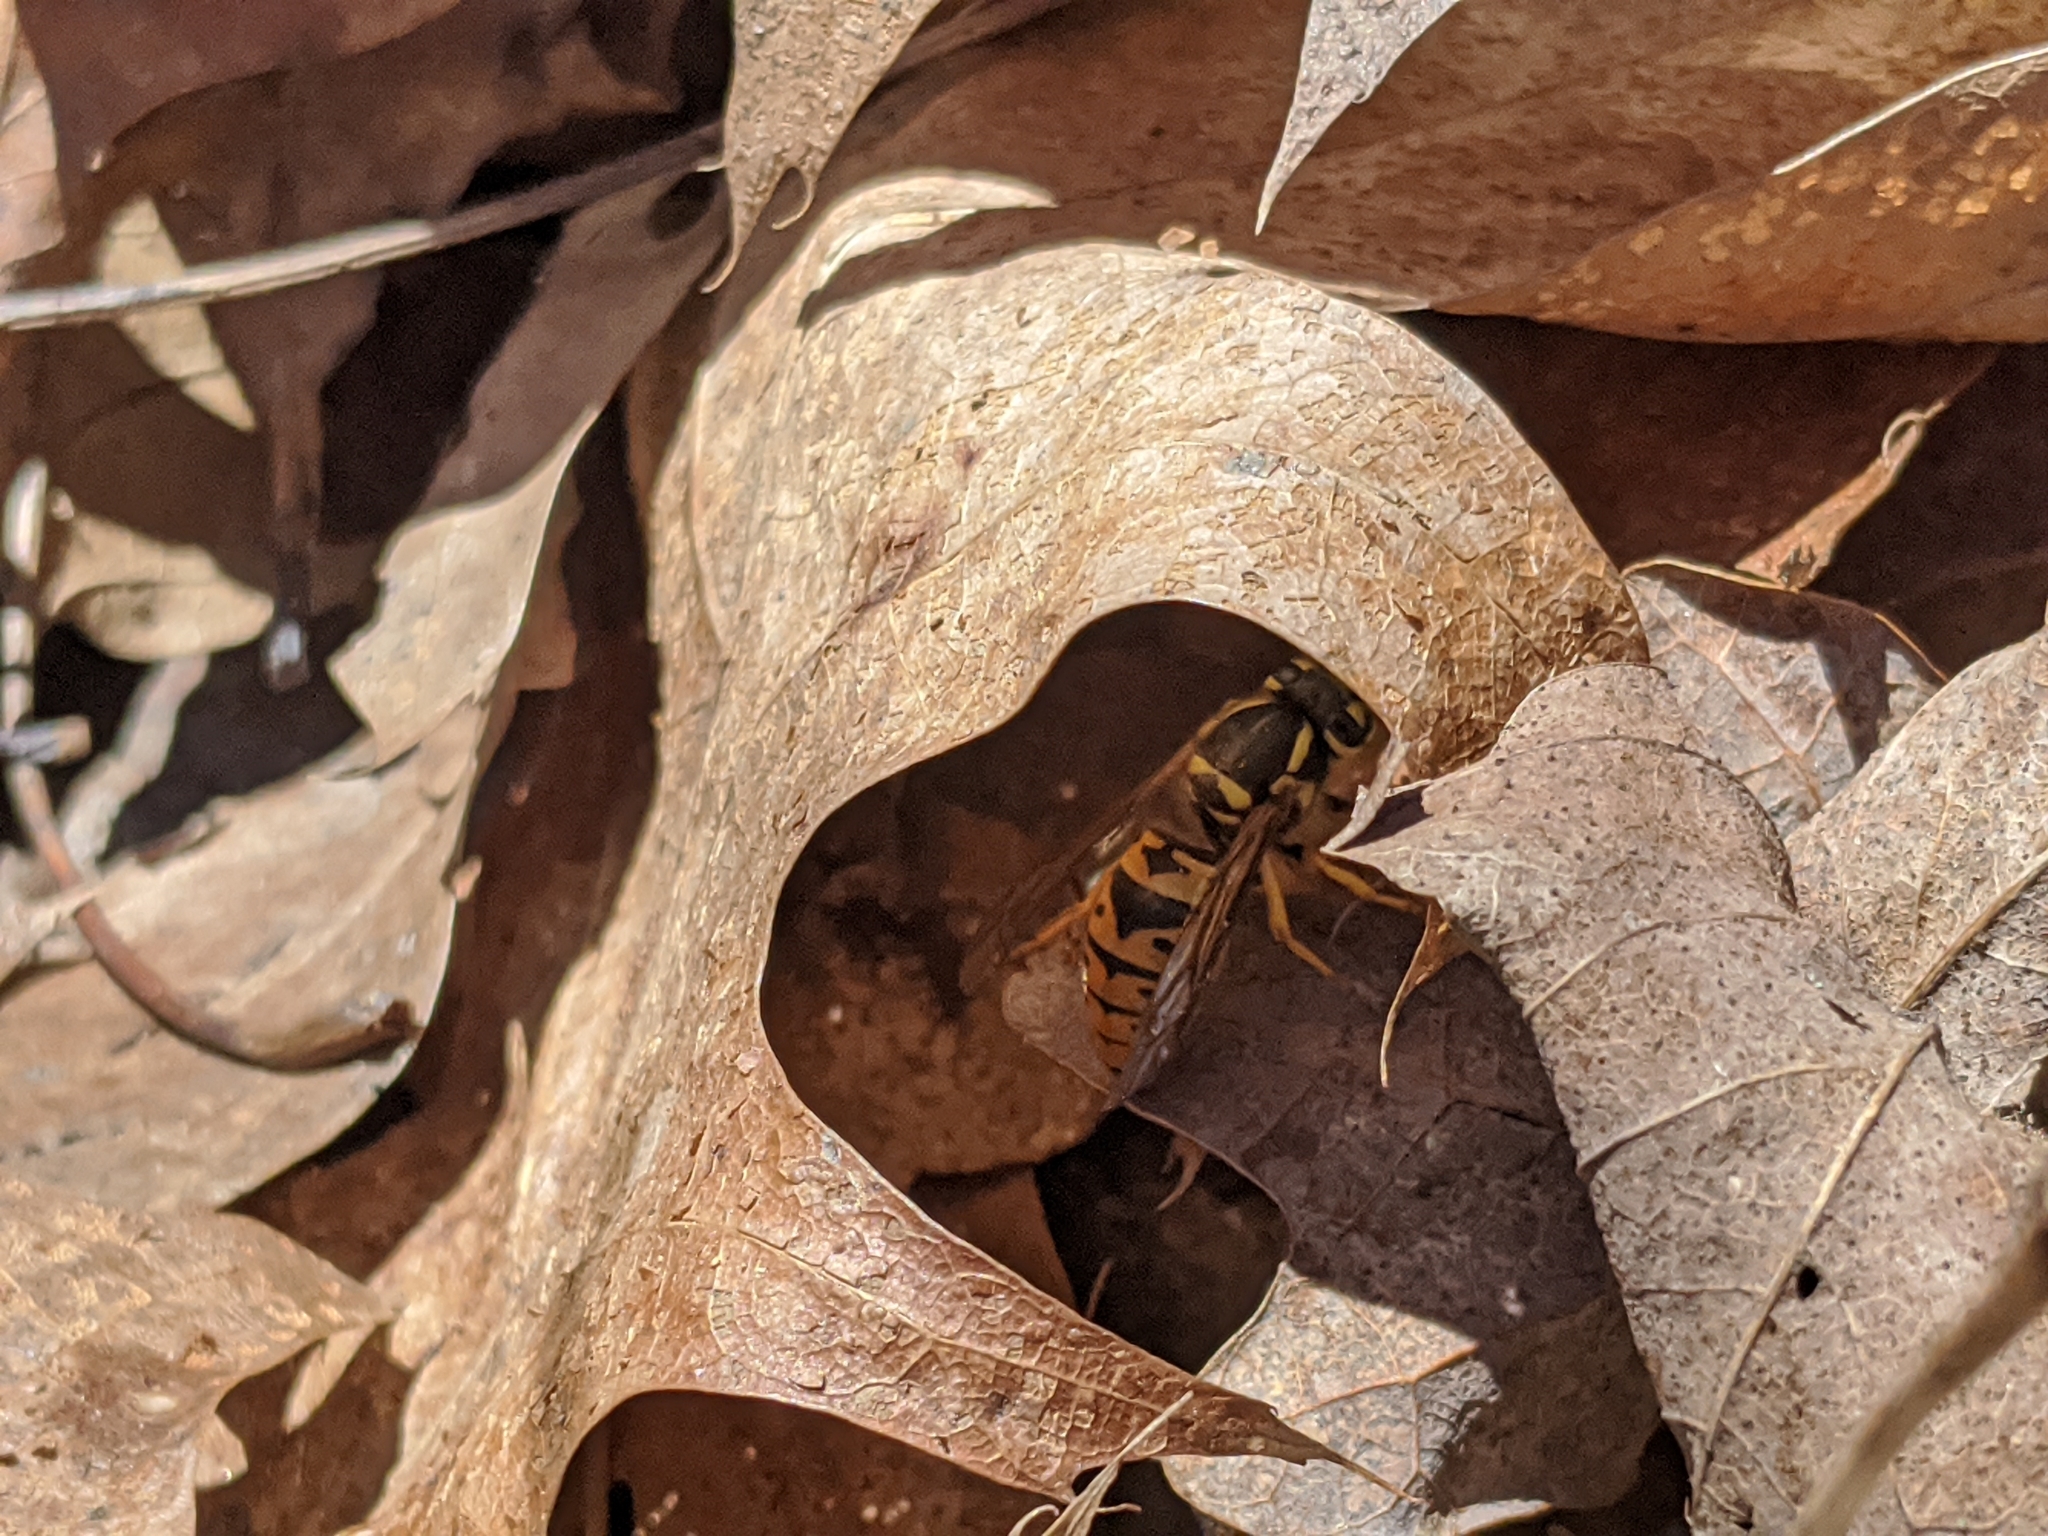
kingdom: Animalia
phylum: Arthropoda
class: Insecta
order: Hymenoptera
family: Vespidae
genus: Vespula
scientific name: Vespula maculifrons
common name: Eastern yellowjacket
